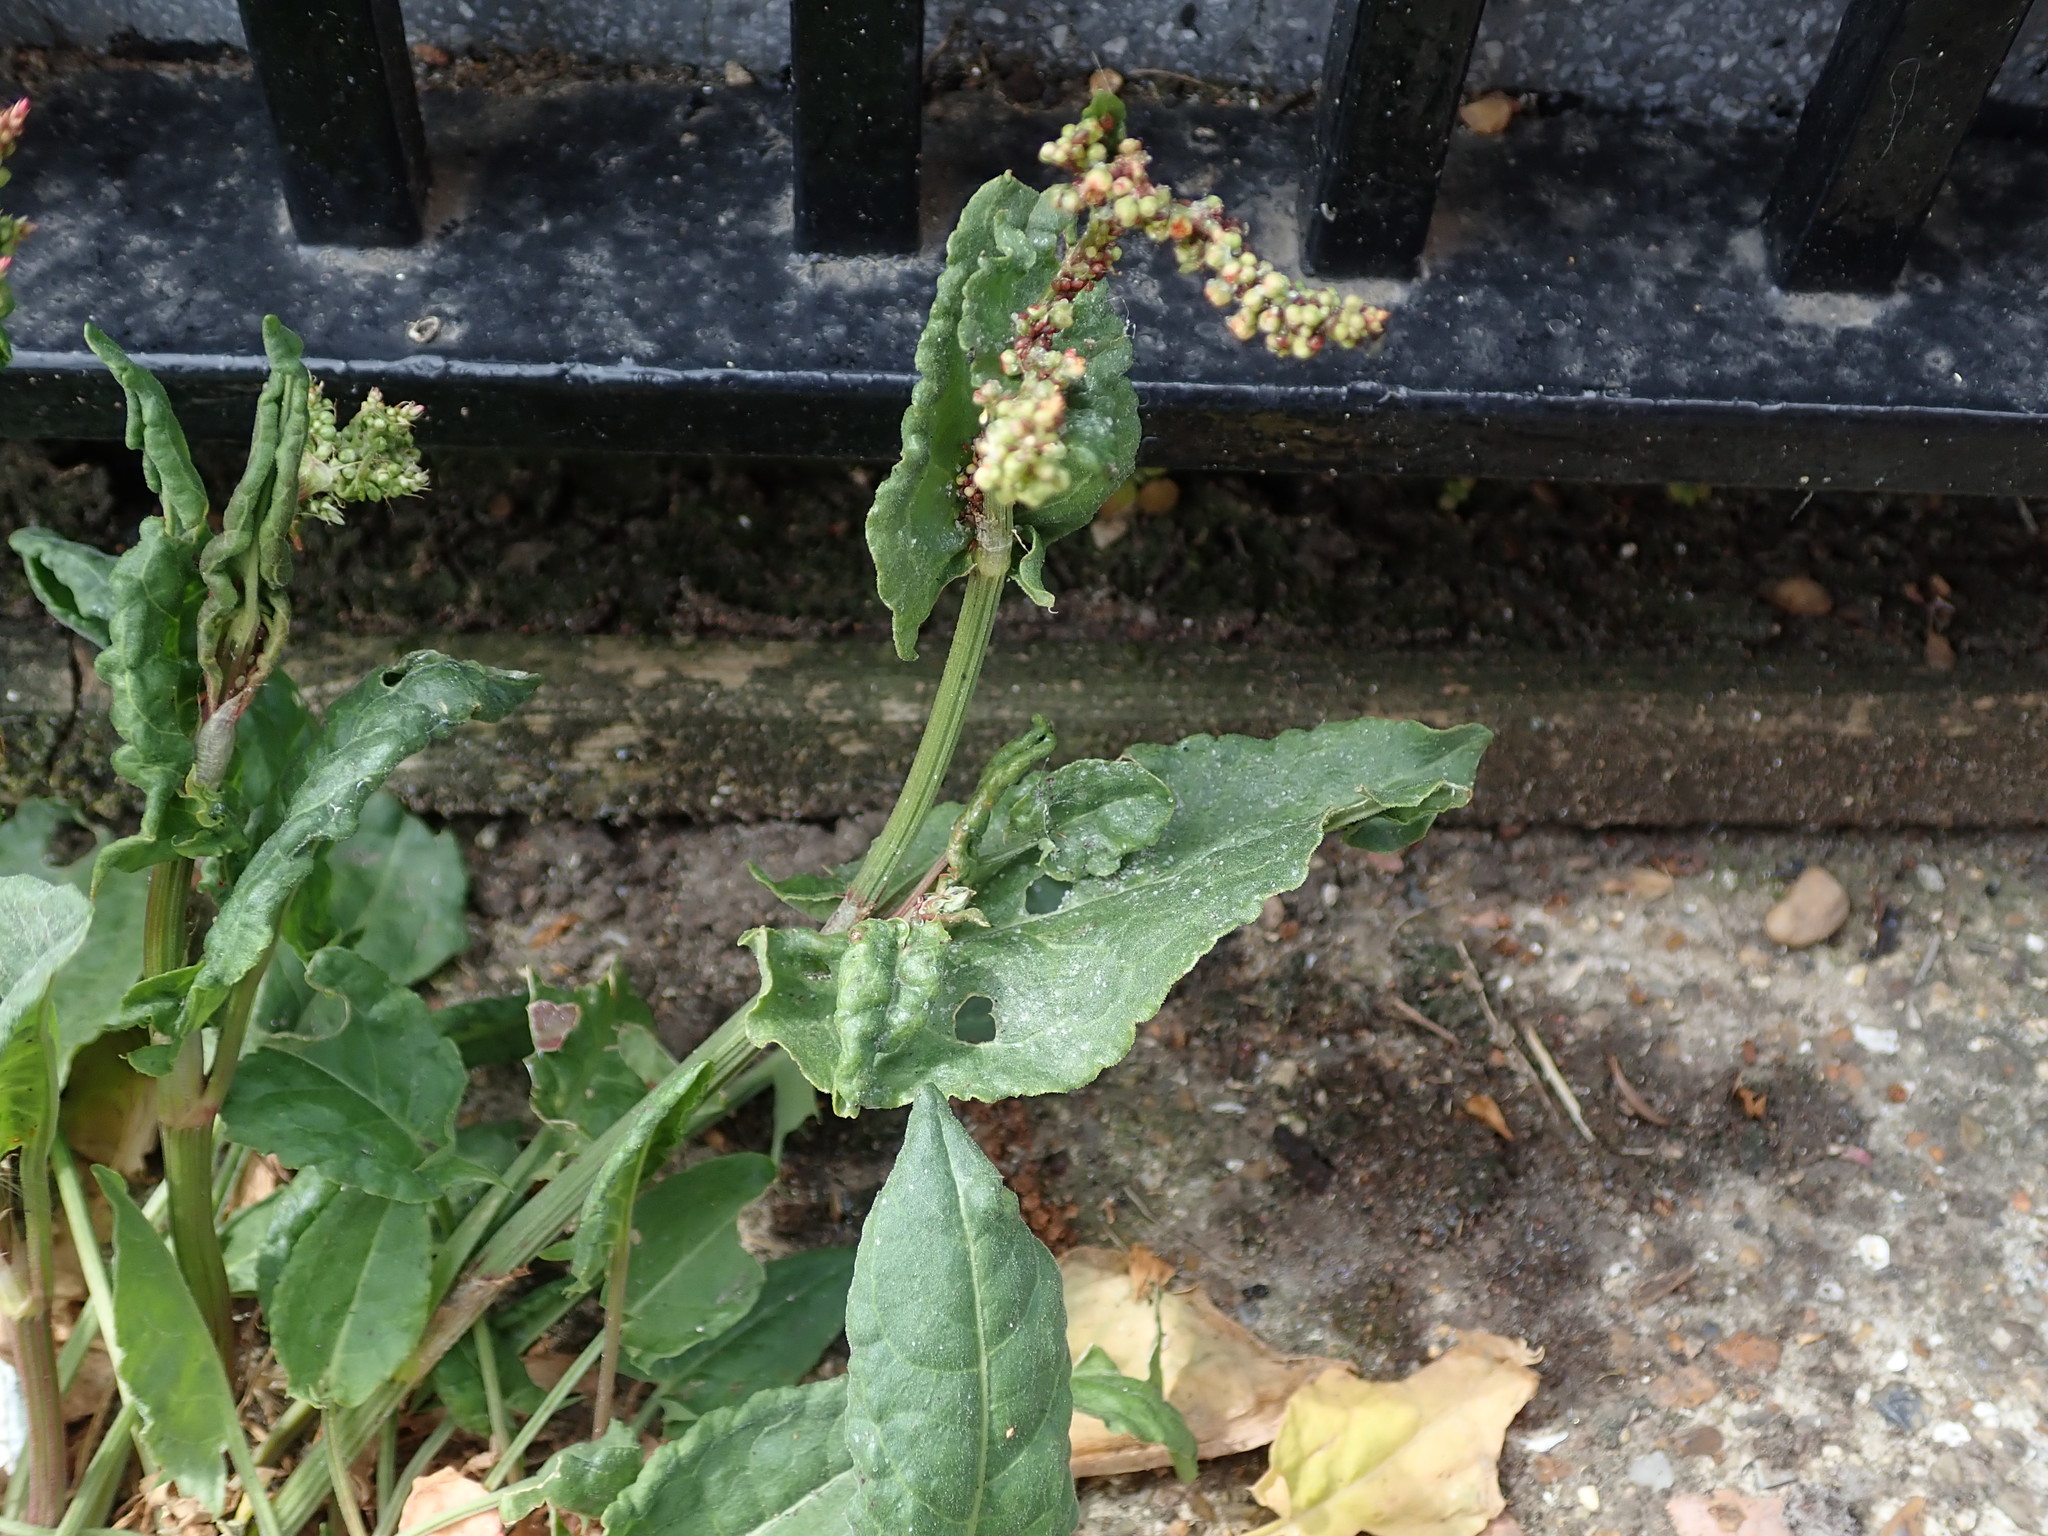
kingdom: Plantae
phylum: Tracheophyta
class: Magnoliopsida
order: Caryophyllales
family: Polygonaceae
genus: Rumex
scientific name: Rumex acetosa
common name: Garden sorrel
